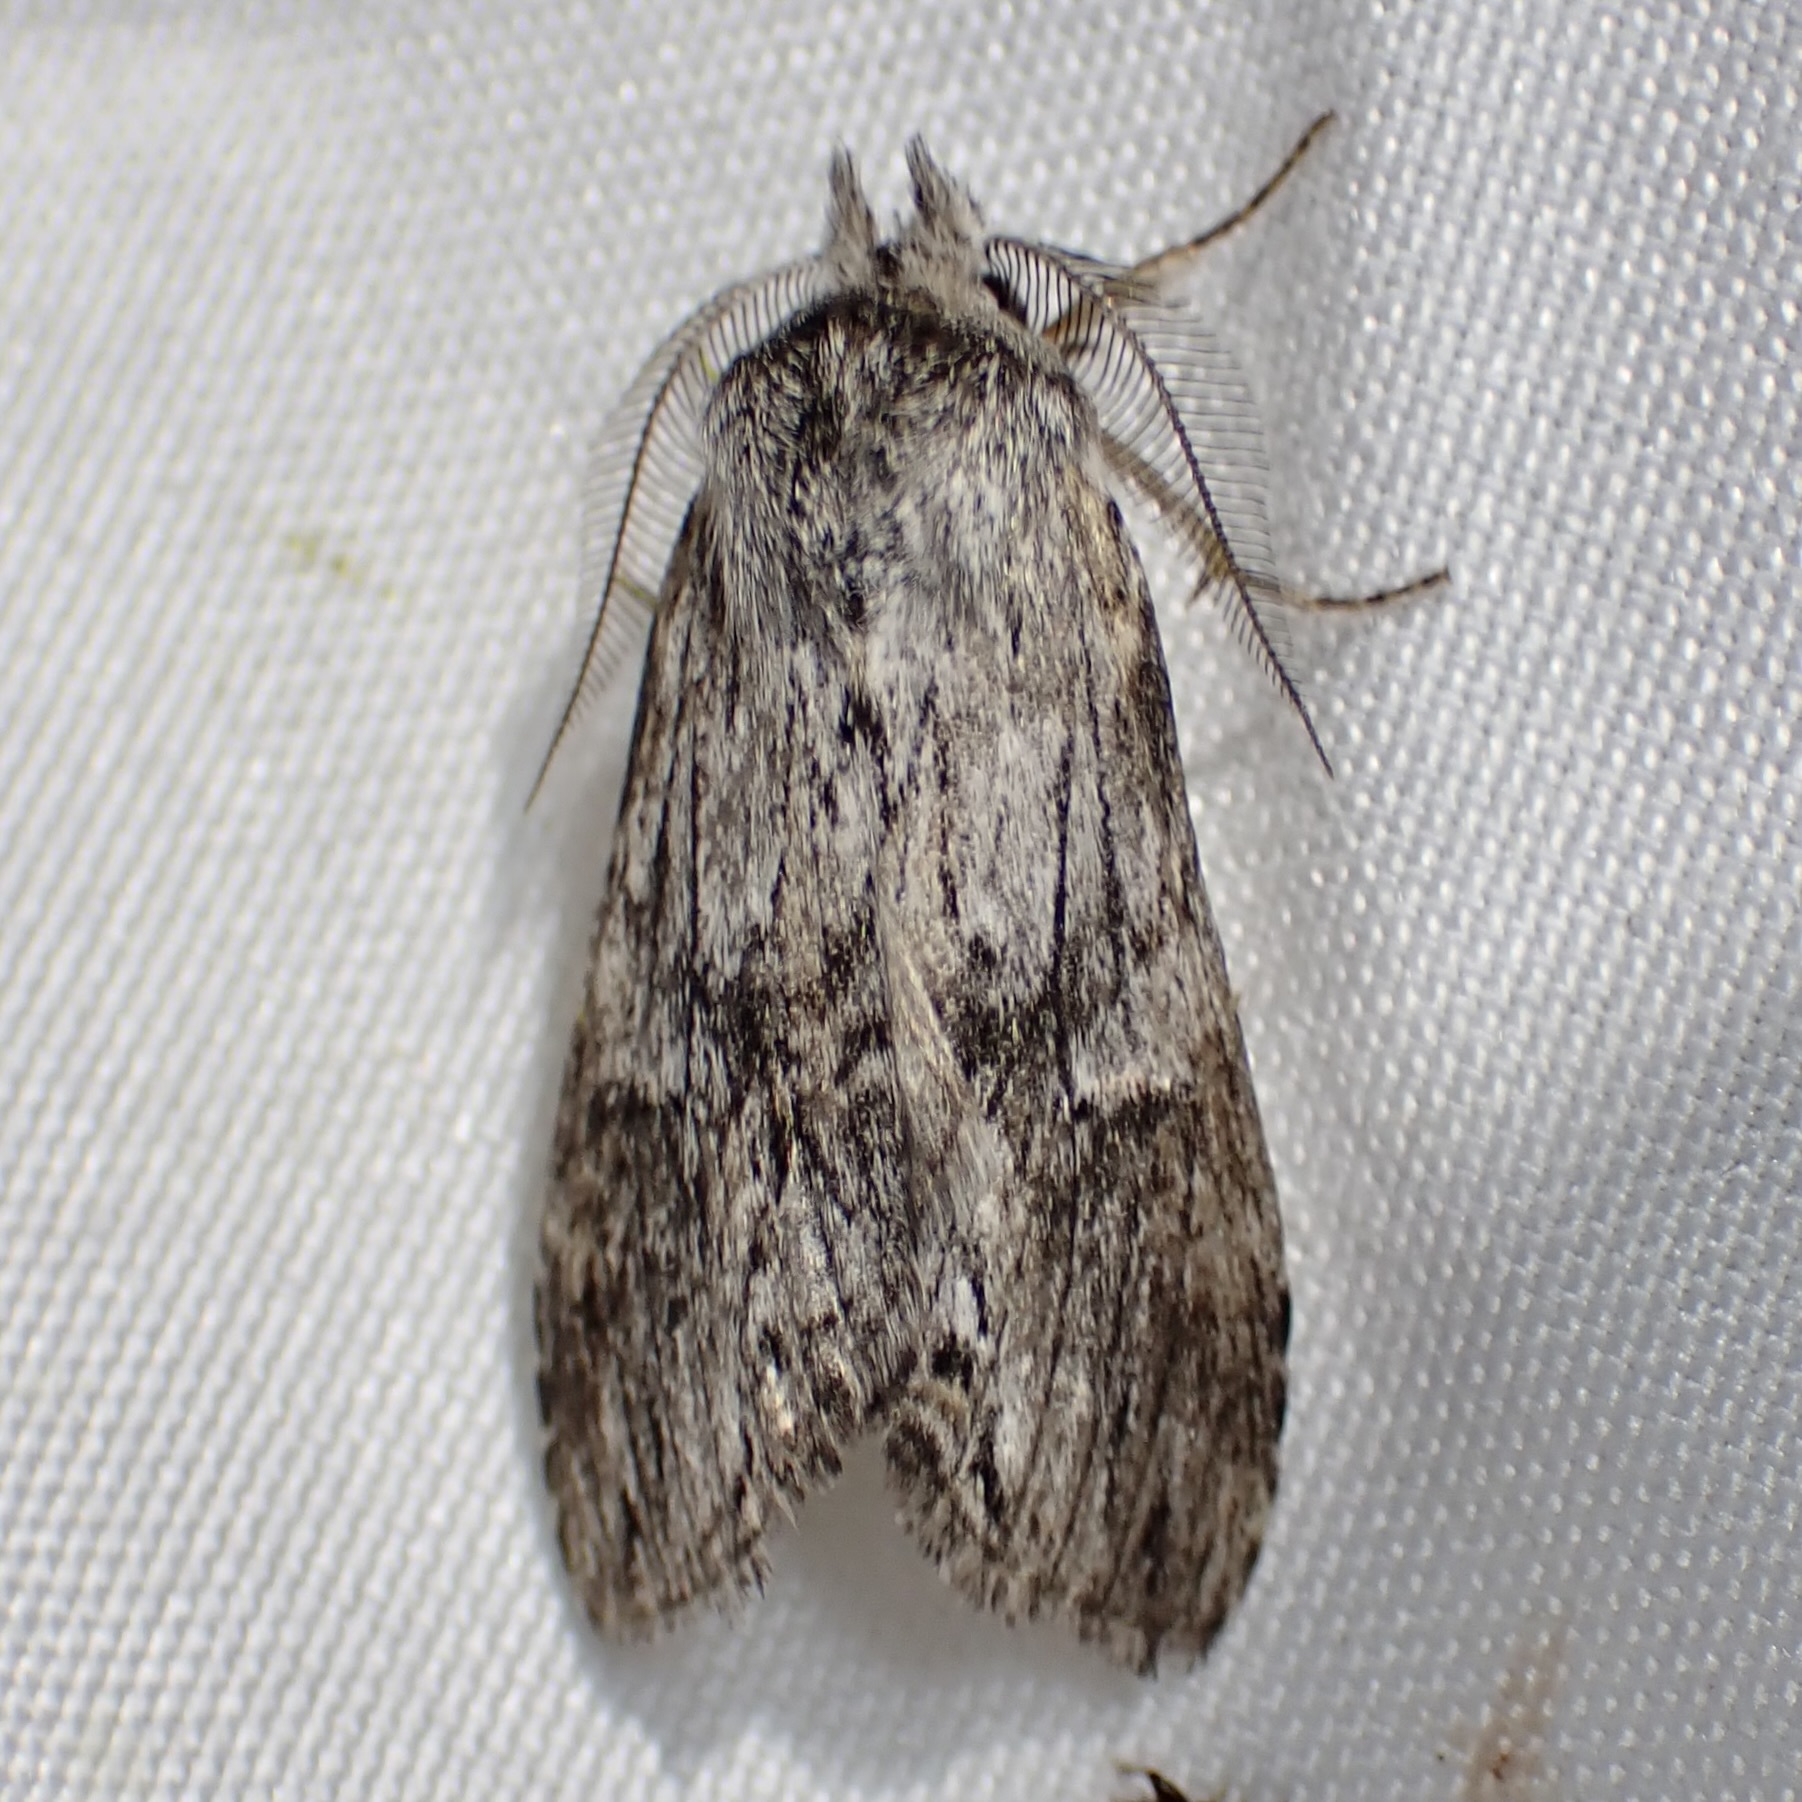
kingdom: Animalia
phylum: Arthropoda
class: Insecta
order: Lepidoptera
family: Notodontidae
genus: Notela
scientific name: Notela jaliscana
